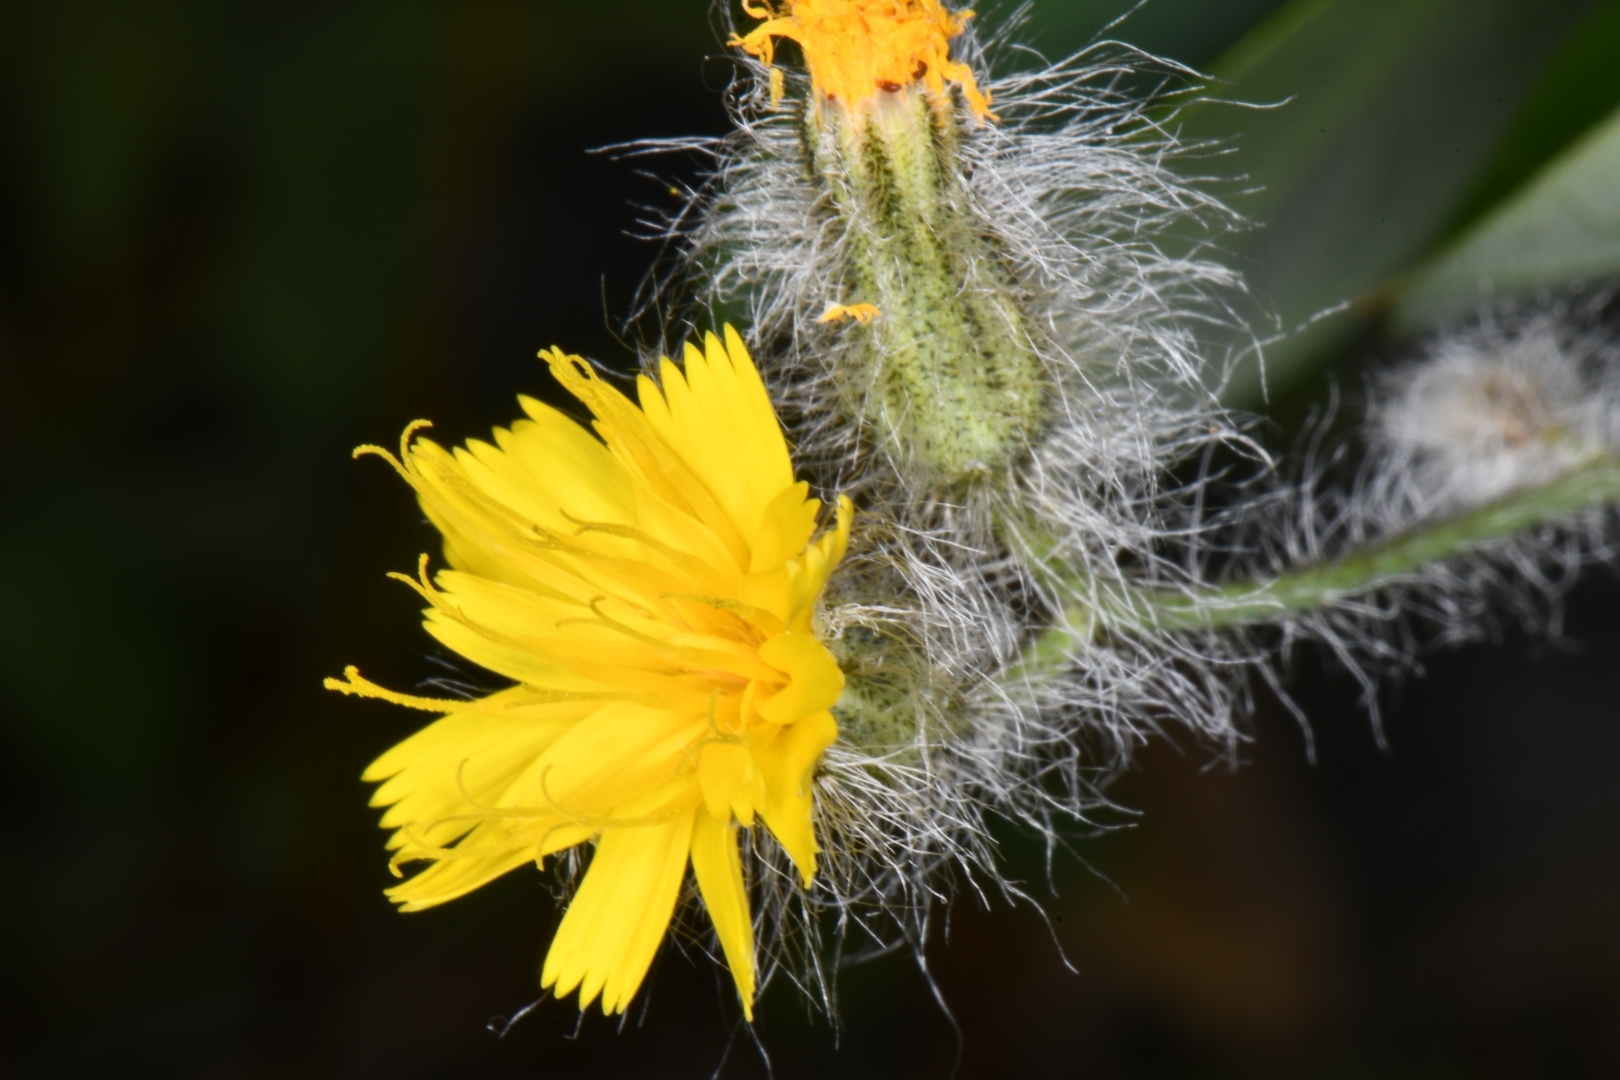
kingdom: Plantae
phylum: Tracheophyta
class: Magnoliopsida
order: Asterales
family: Asteraceae
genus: Hieracium
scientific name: Hieracium scouleri
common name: Hound's-tongue hawkweed
